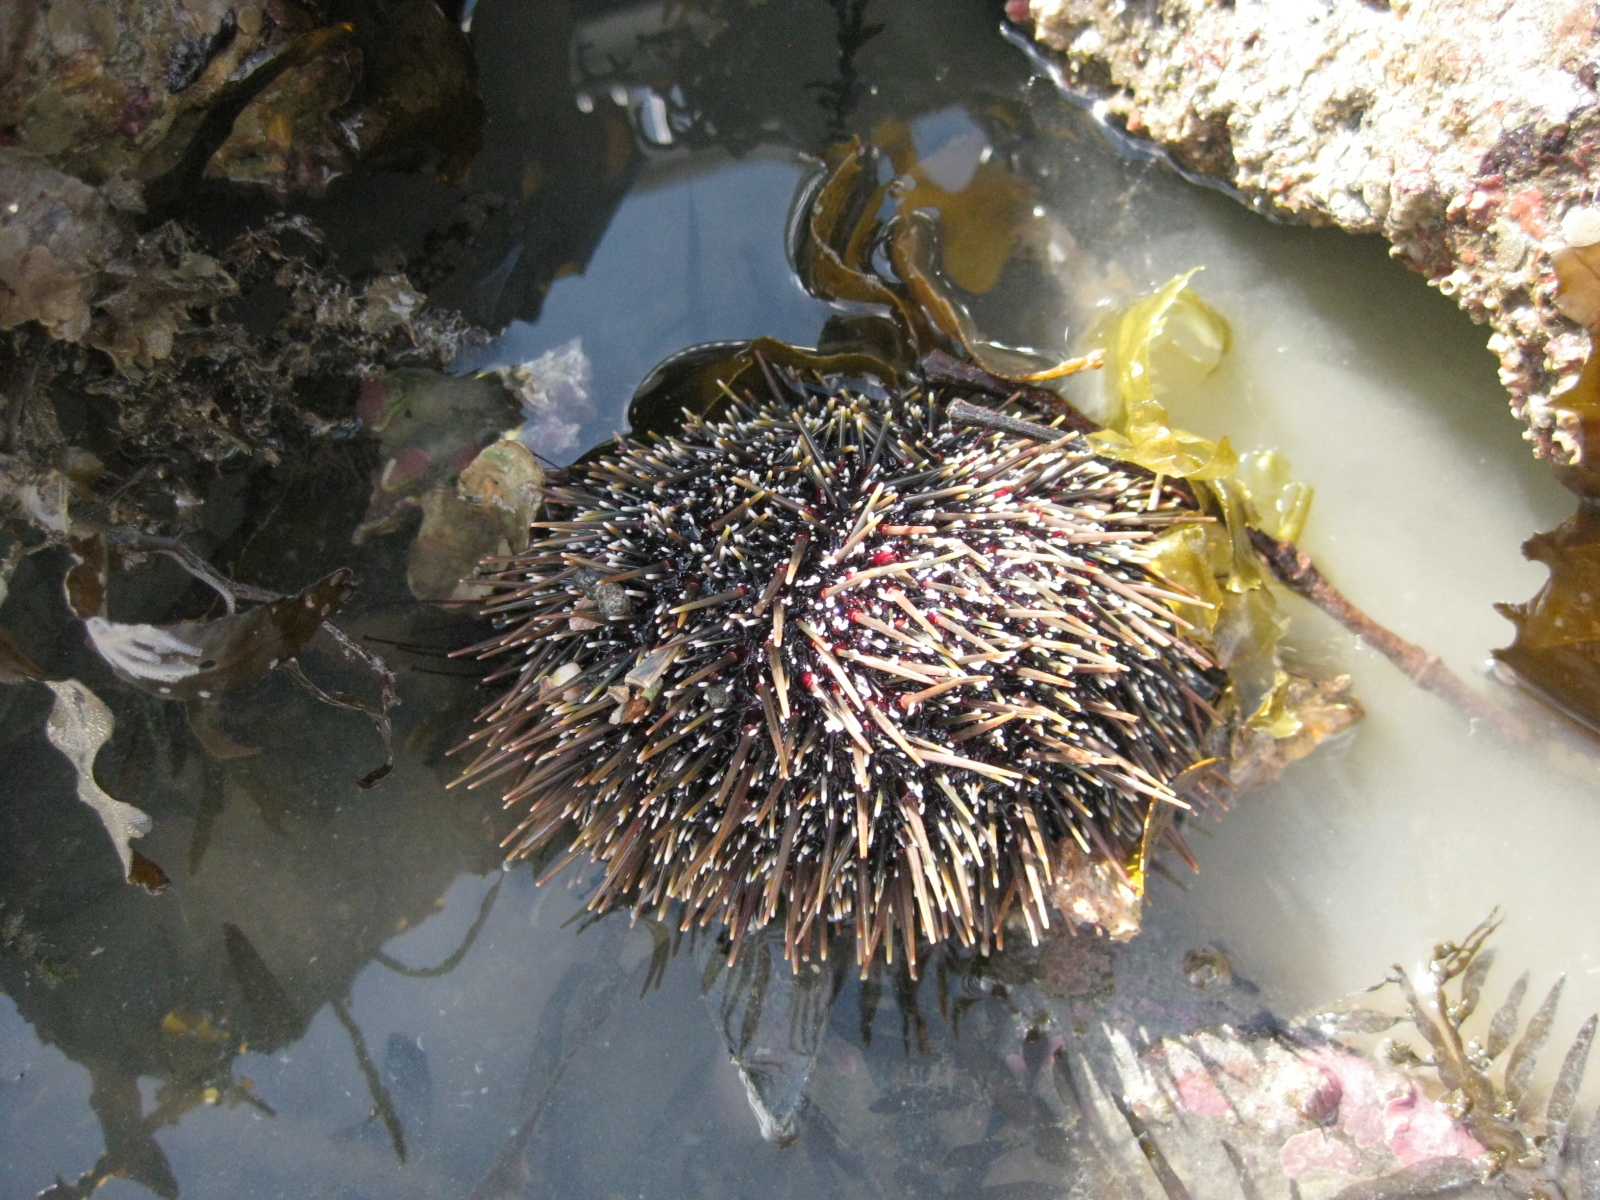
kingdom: Animalia
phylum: Echinodermata
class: Echinoidea
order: Camarodonta
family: Echinometridae
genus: Evechinus
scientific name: Evechinus chloroticus
